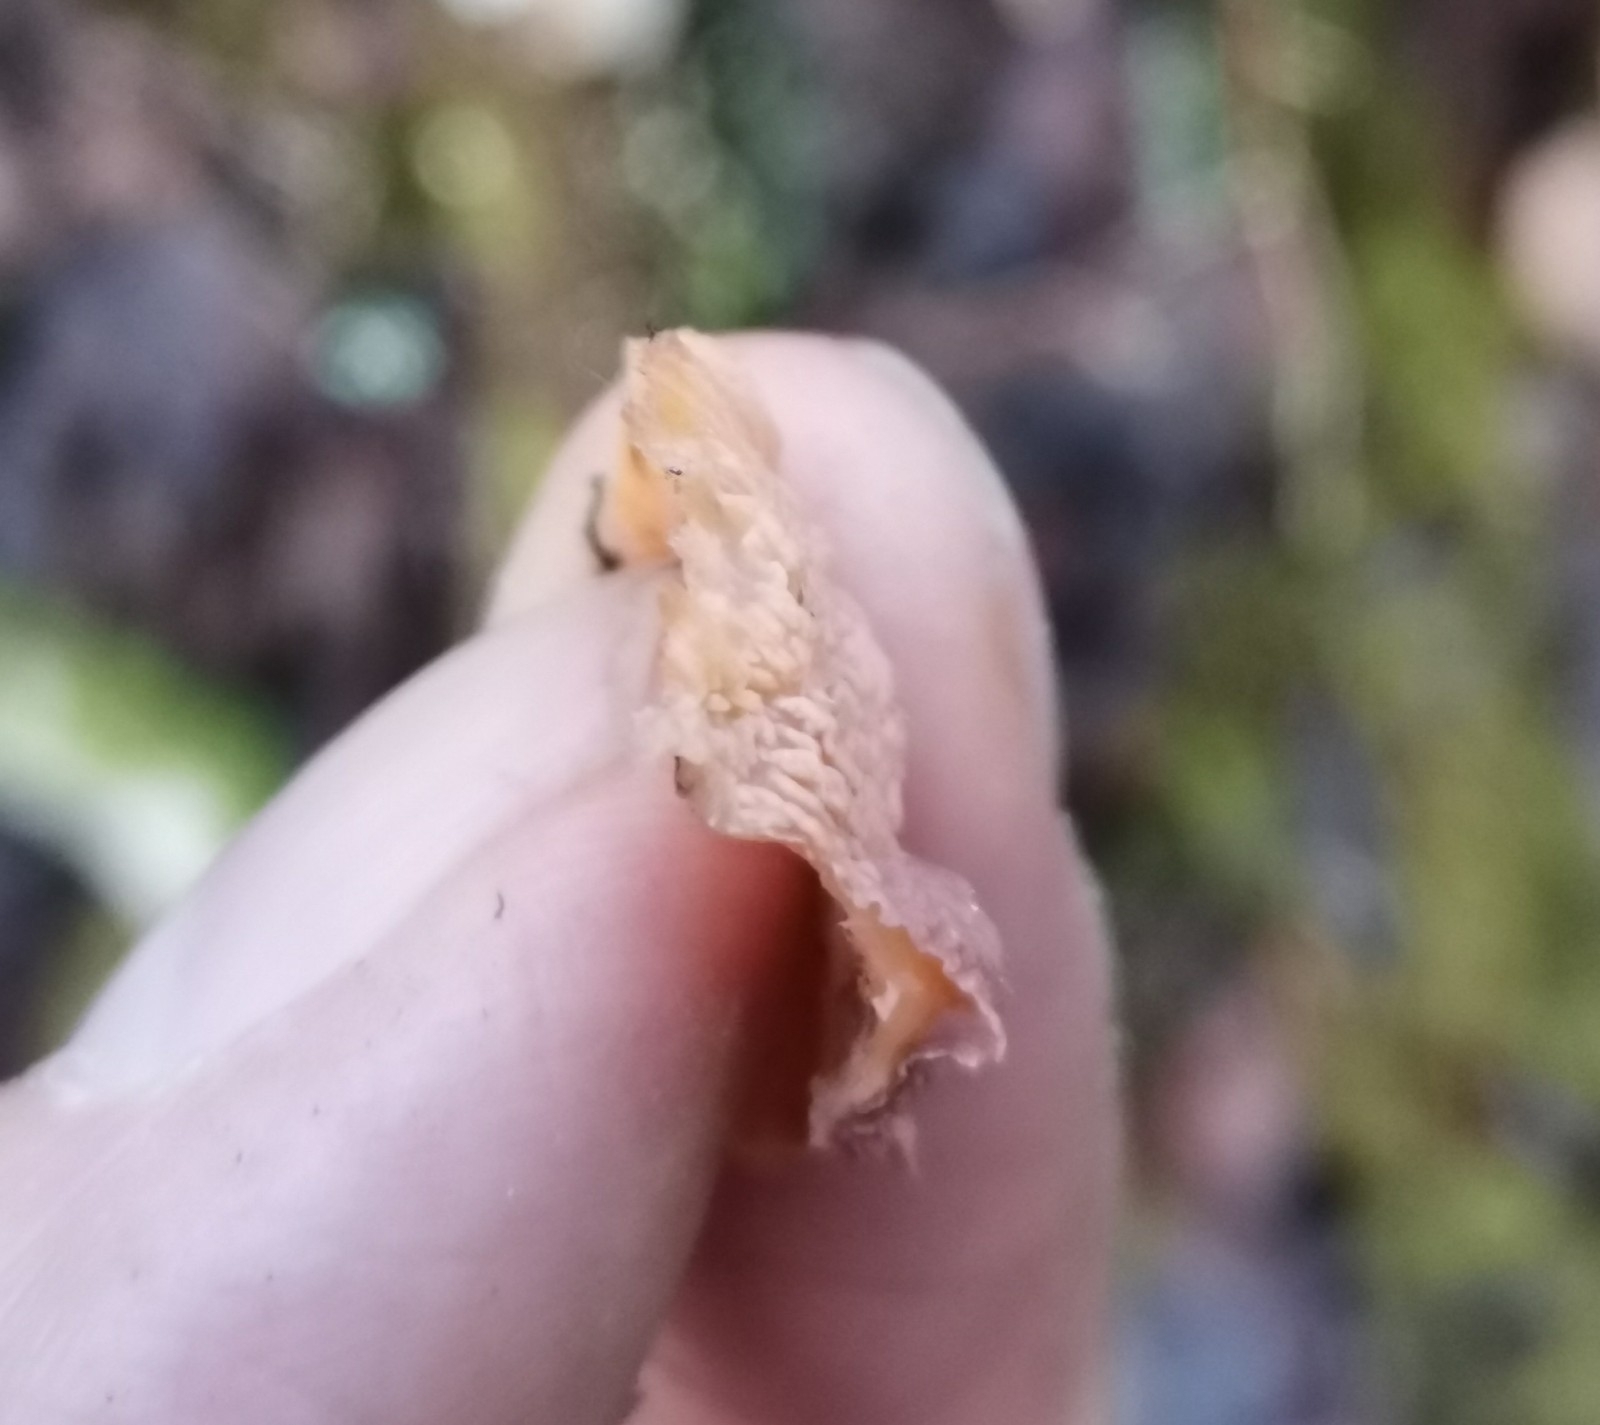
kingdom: Fungi
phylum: Basidiomycota
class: Agaricomycetes
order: Polyporales
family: Meruliaceae
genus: Phlebia
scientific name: Phlebia radiata
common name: Wrinkled crust
